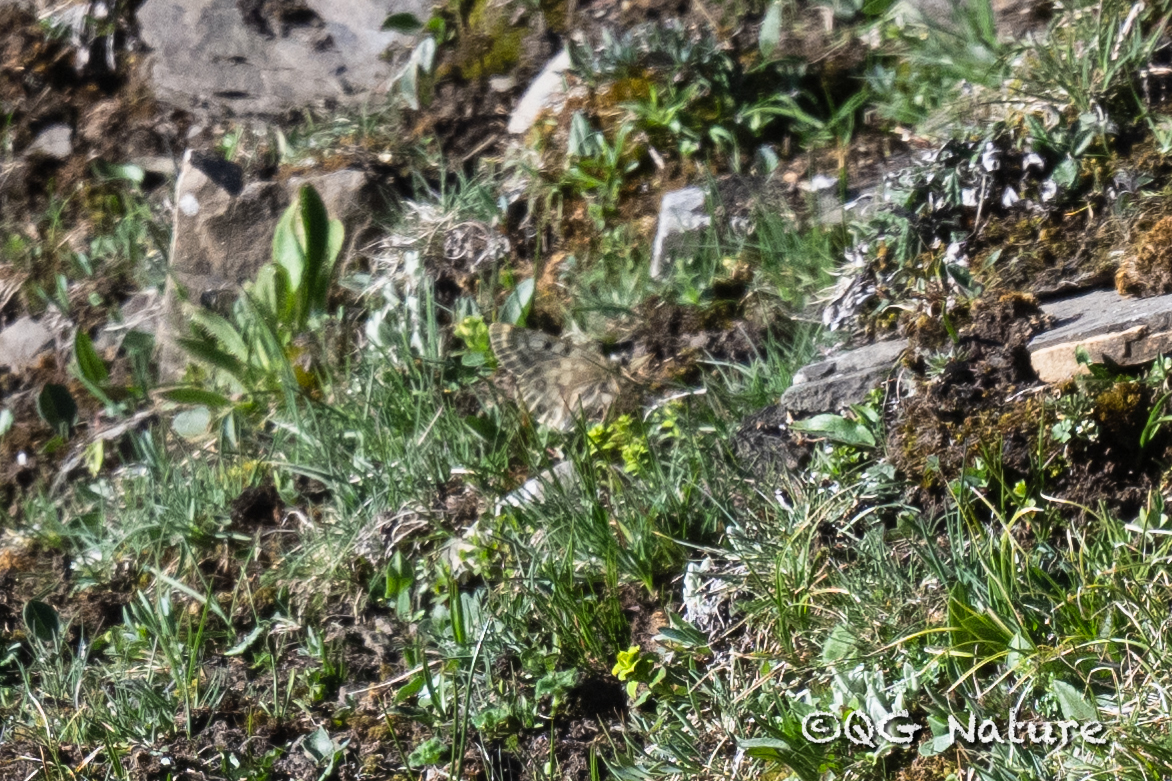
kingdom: Animalia
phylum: Arthropoda
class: Insecta
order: Lepidoptera
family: Papilionidae
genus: Parnassius
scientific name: Parnassius cephalus
